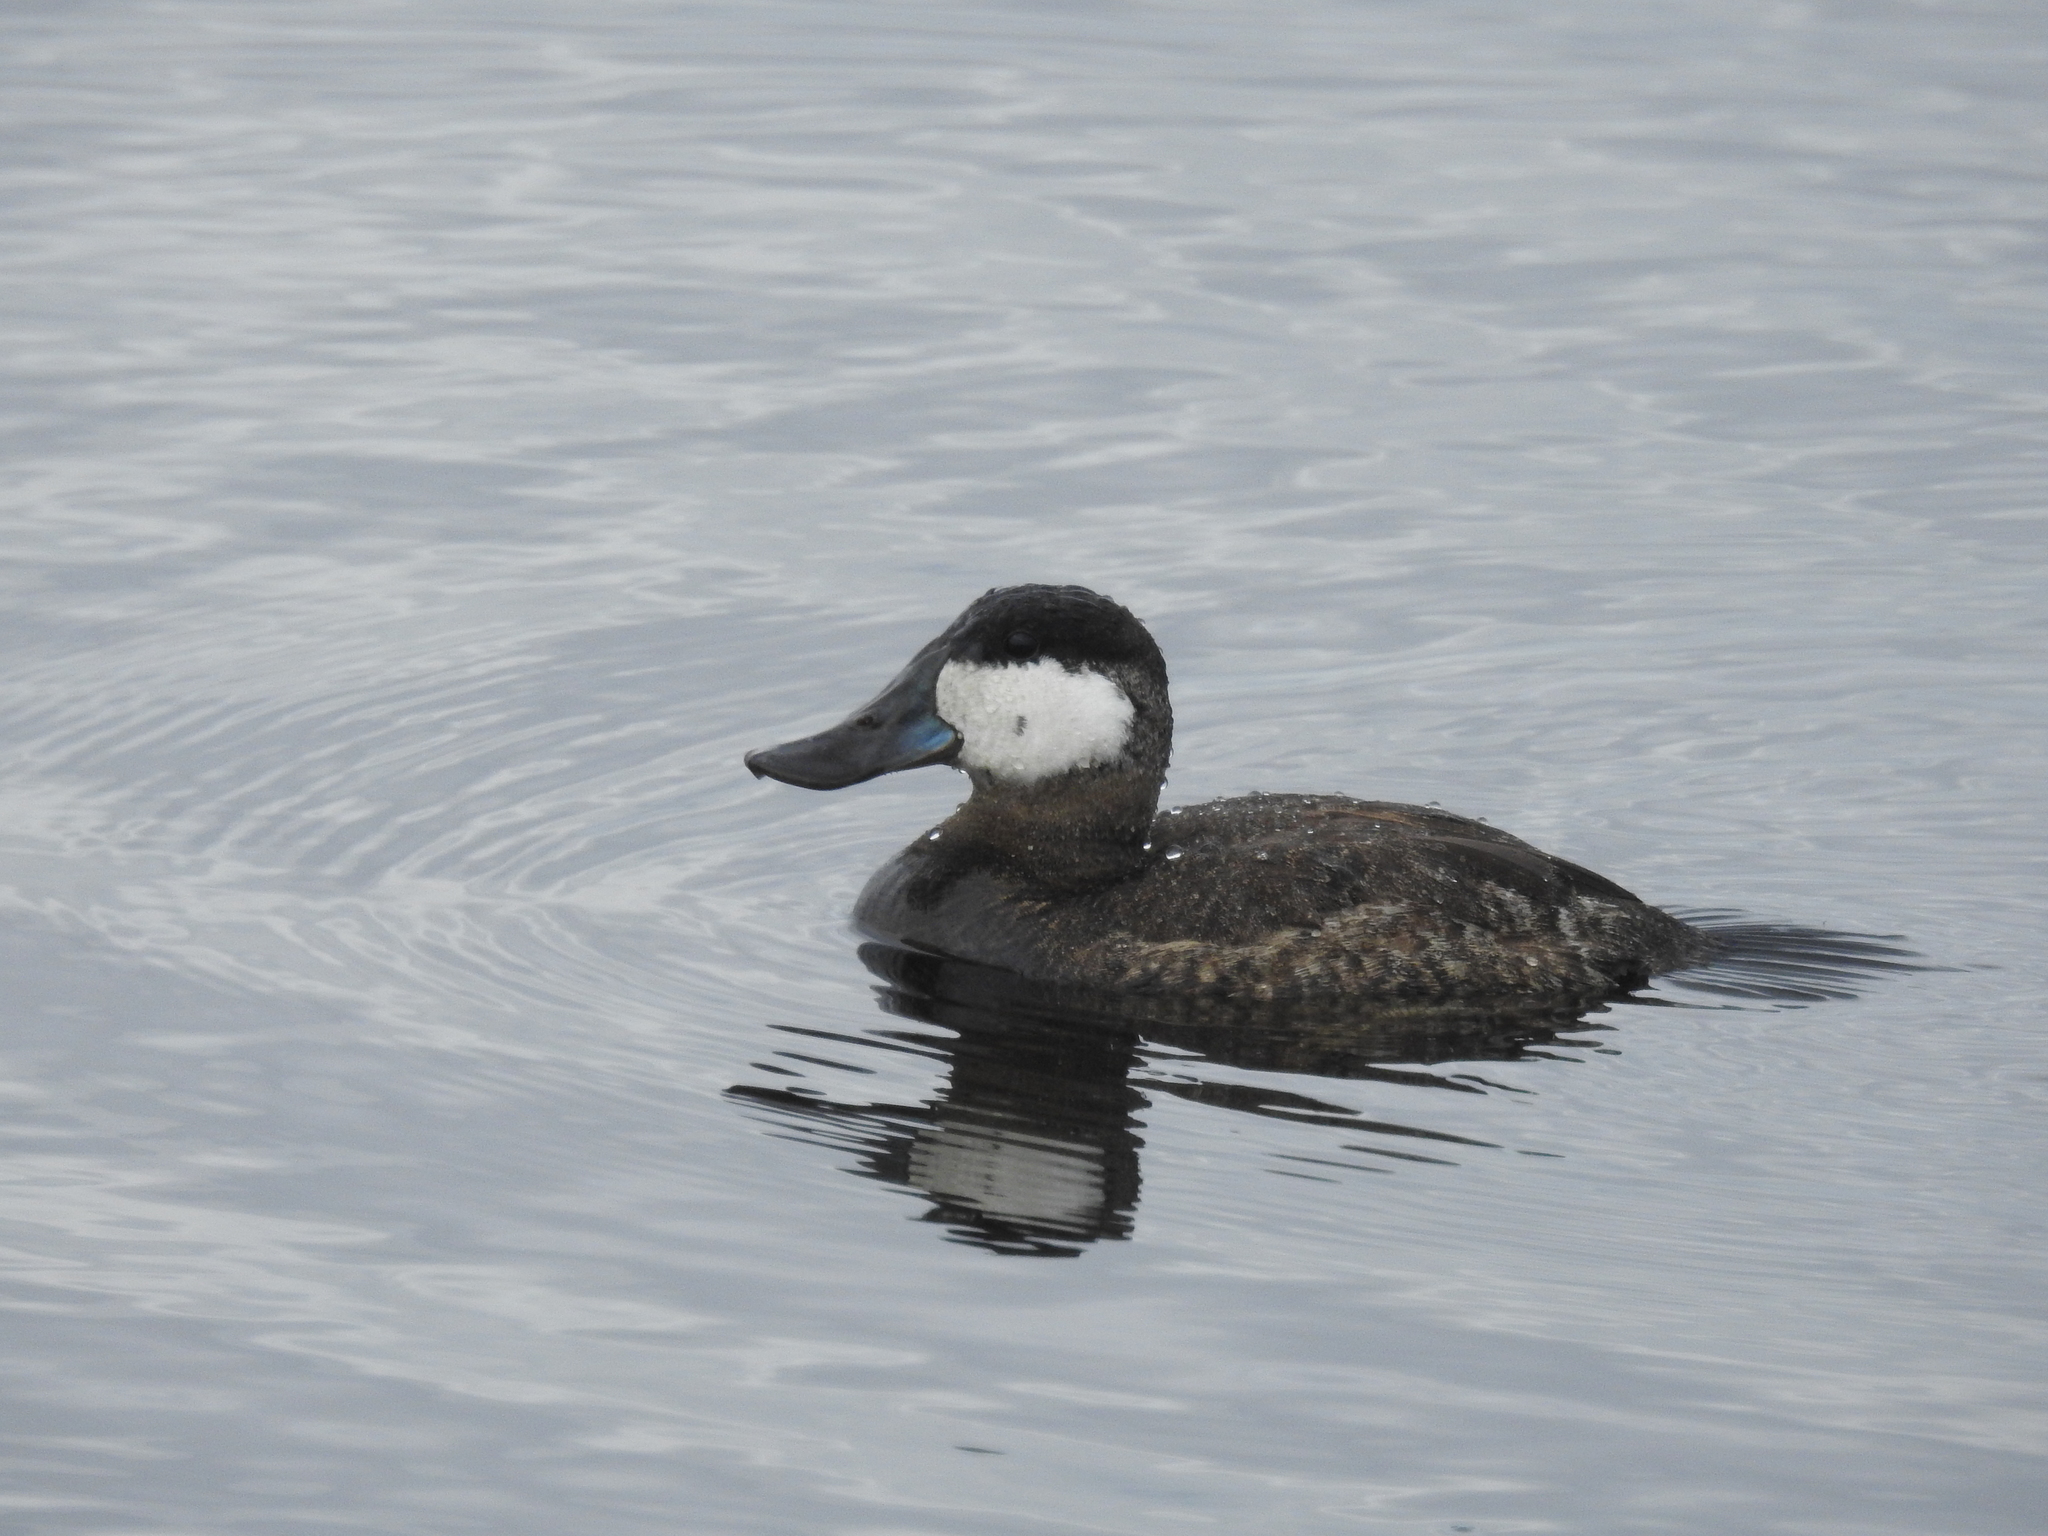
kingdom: Animalia
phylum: Chordata
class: Aves
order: Anseriformes
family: Anatidae
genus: Oxyura
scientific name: Oxyura jamaicensis
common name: Ruddy duck
